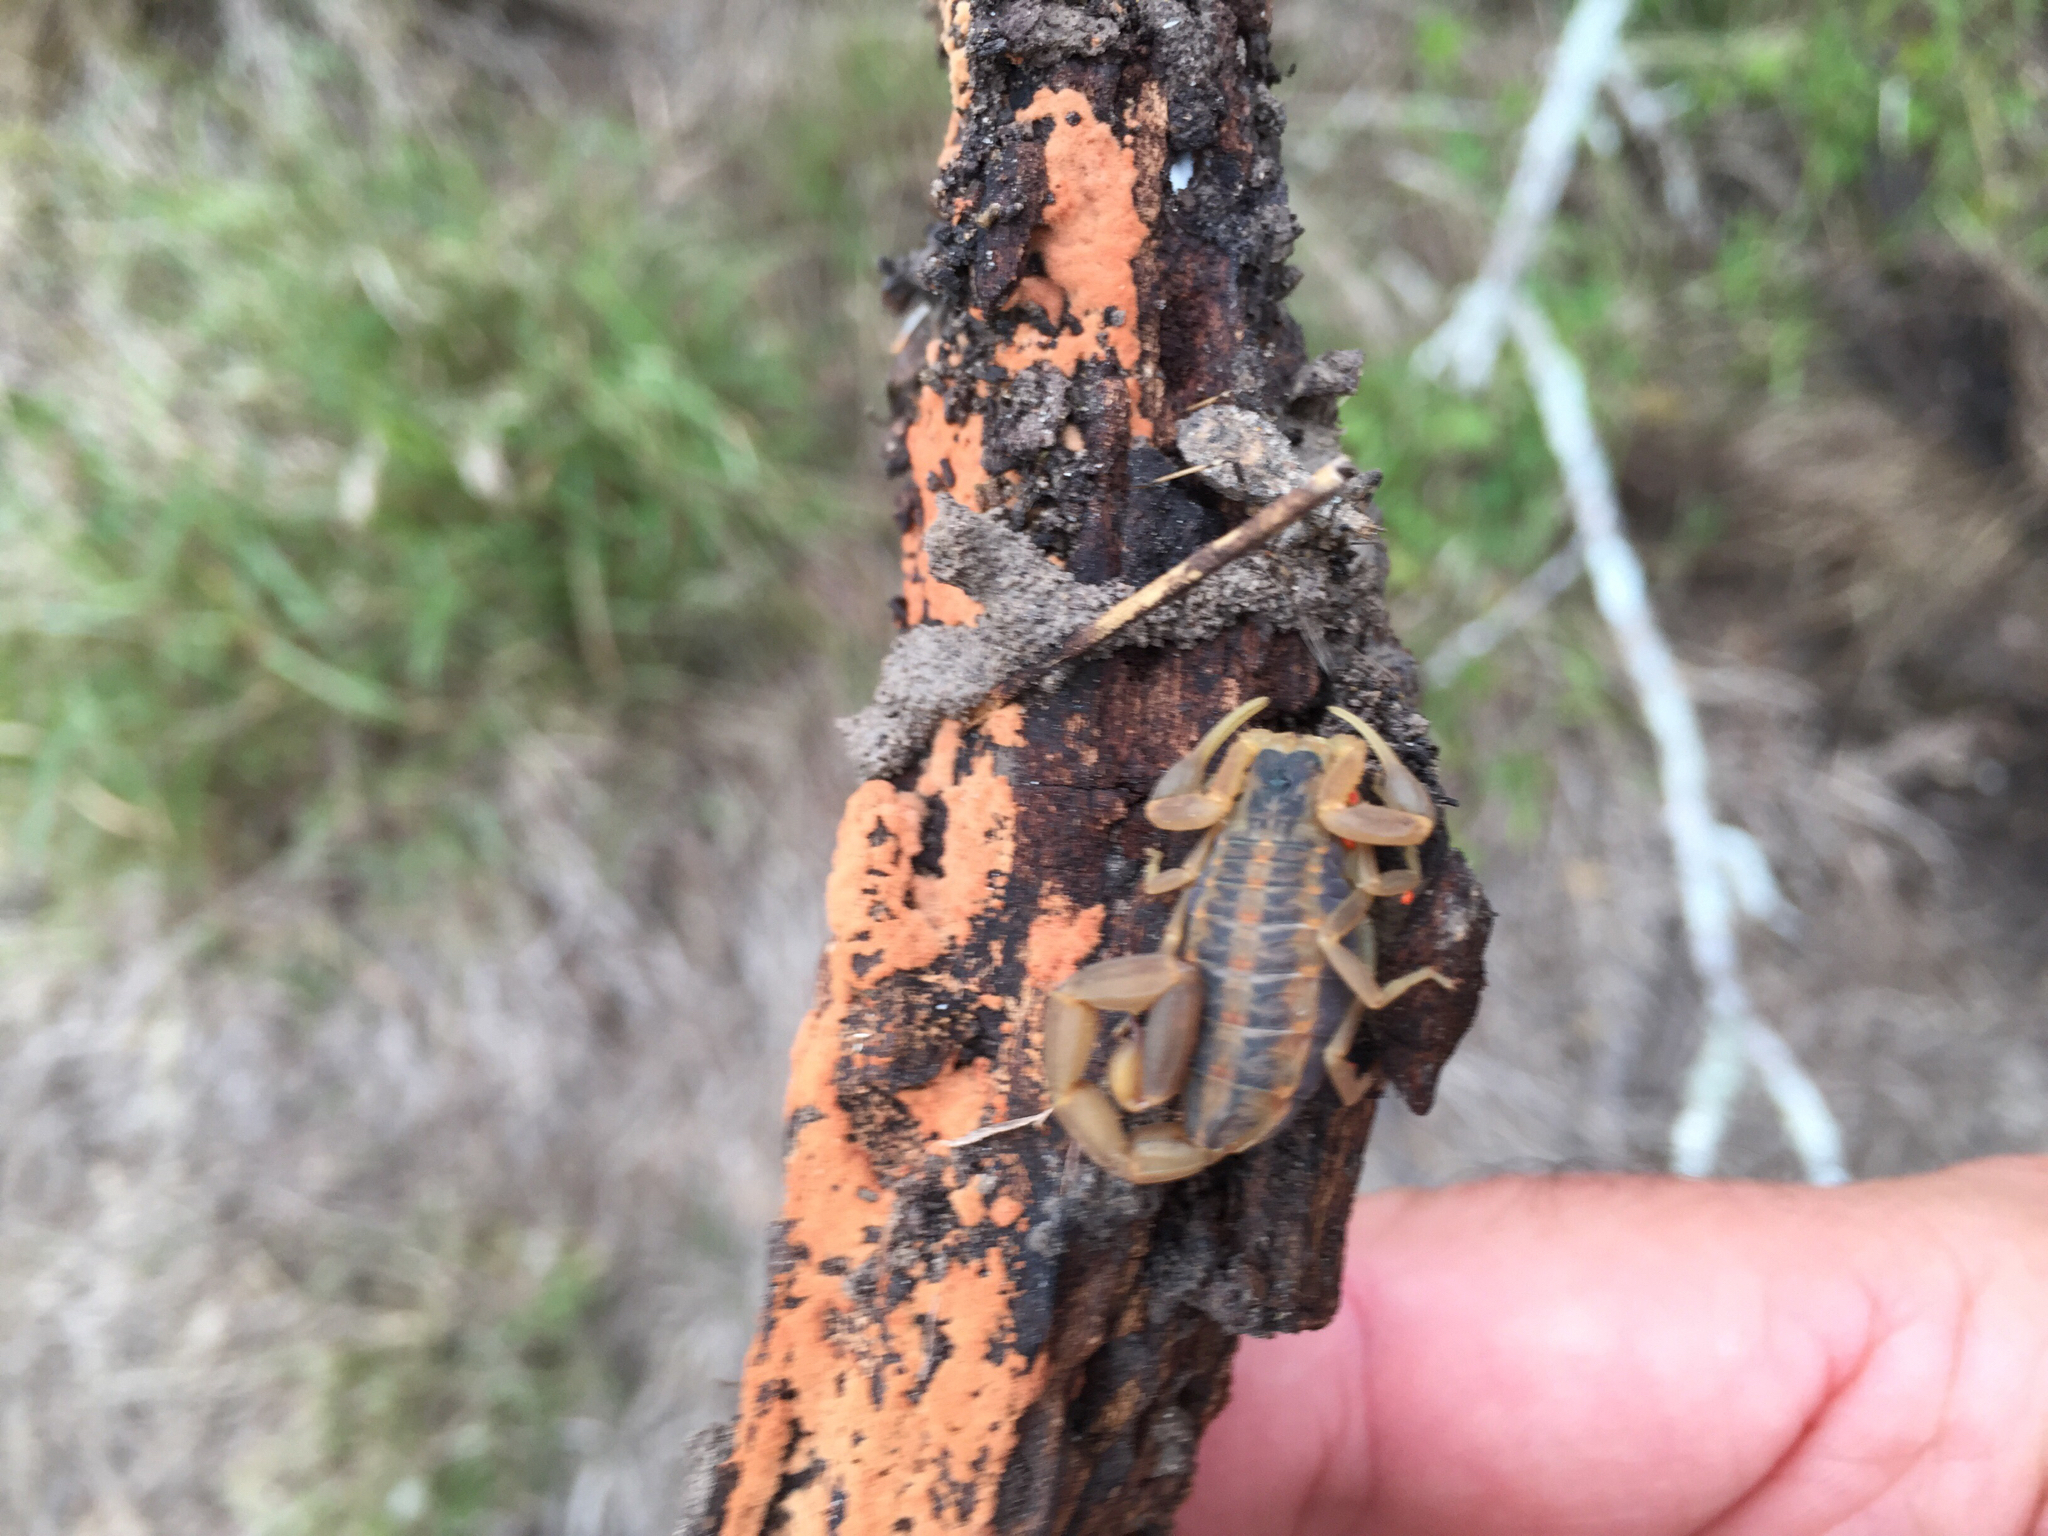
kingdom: Animalia
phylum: Arthropoda
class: Arachnida
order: Scorpiones
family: Buthidae
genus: Centruroides
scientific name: Centruroides vittatus
